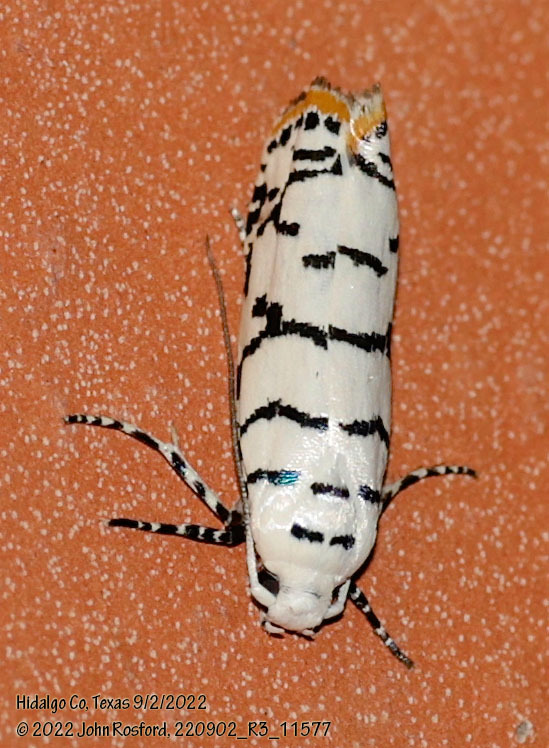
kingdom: Animalia
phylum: Arthropoda
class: Insecta
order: Lepidoptera
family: Ethmiidae
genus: Ethmia
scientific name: Ethmia delliella
